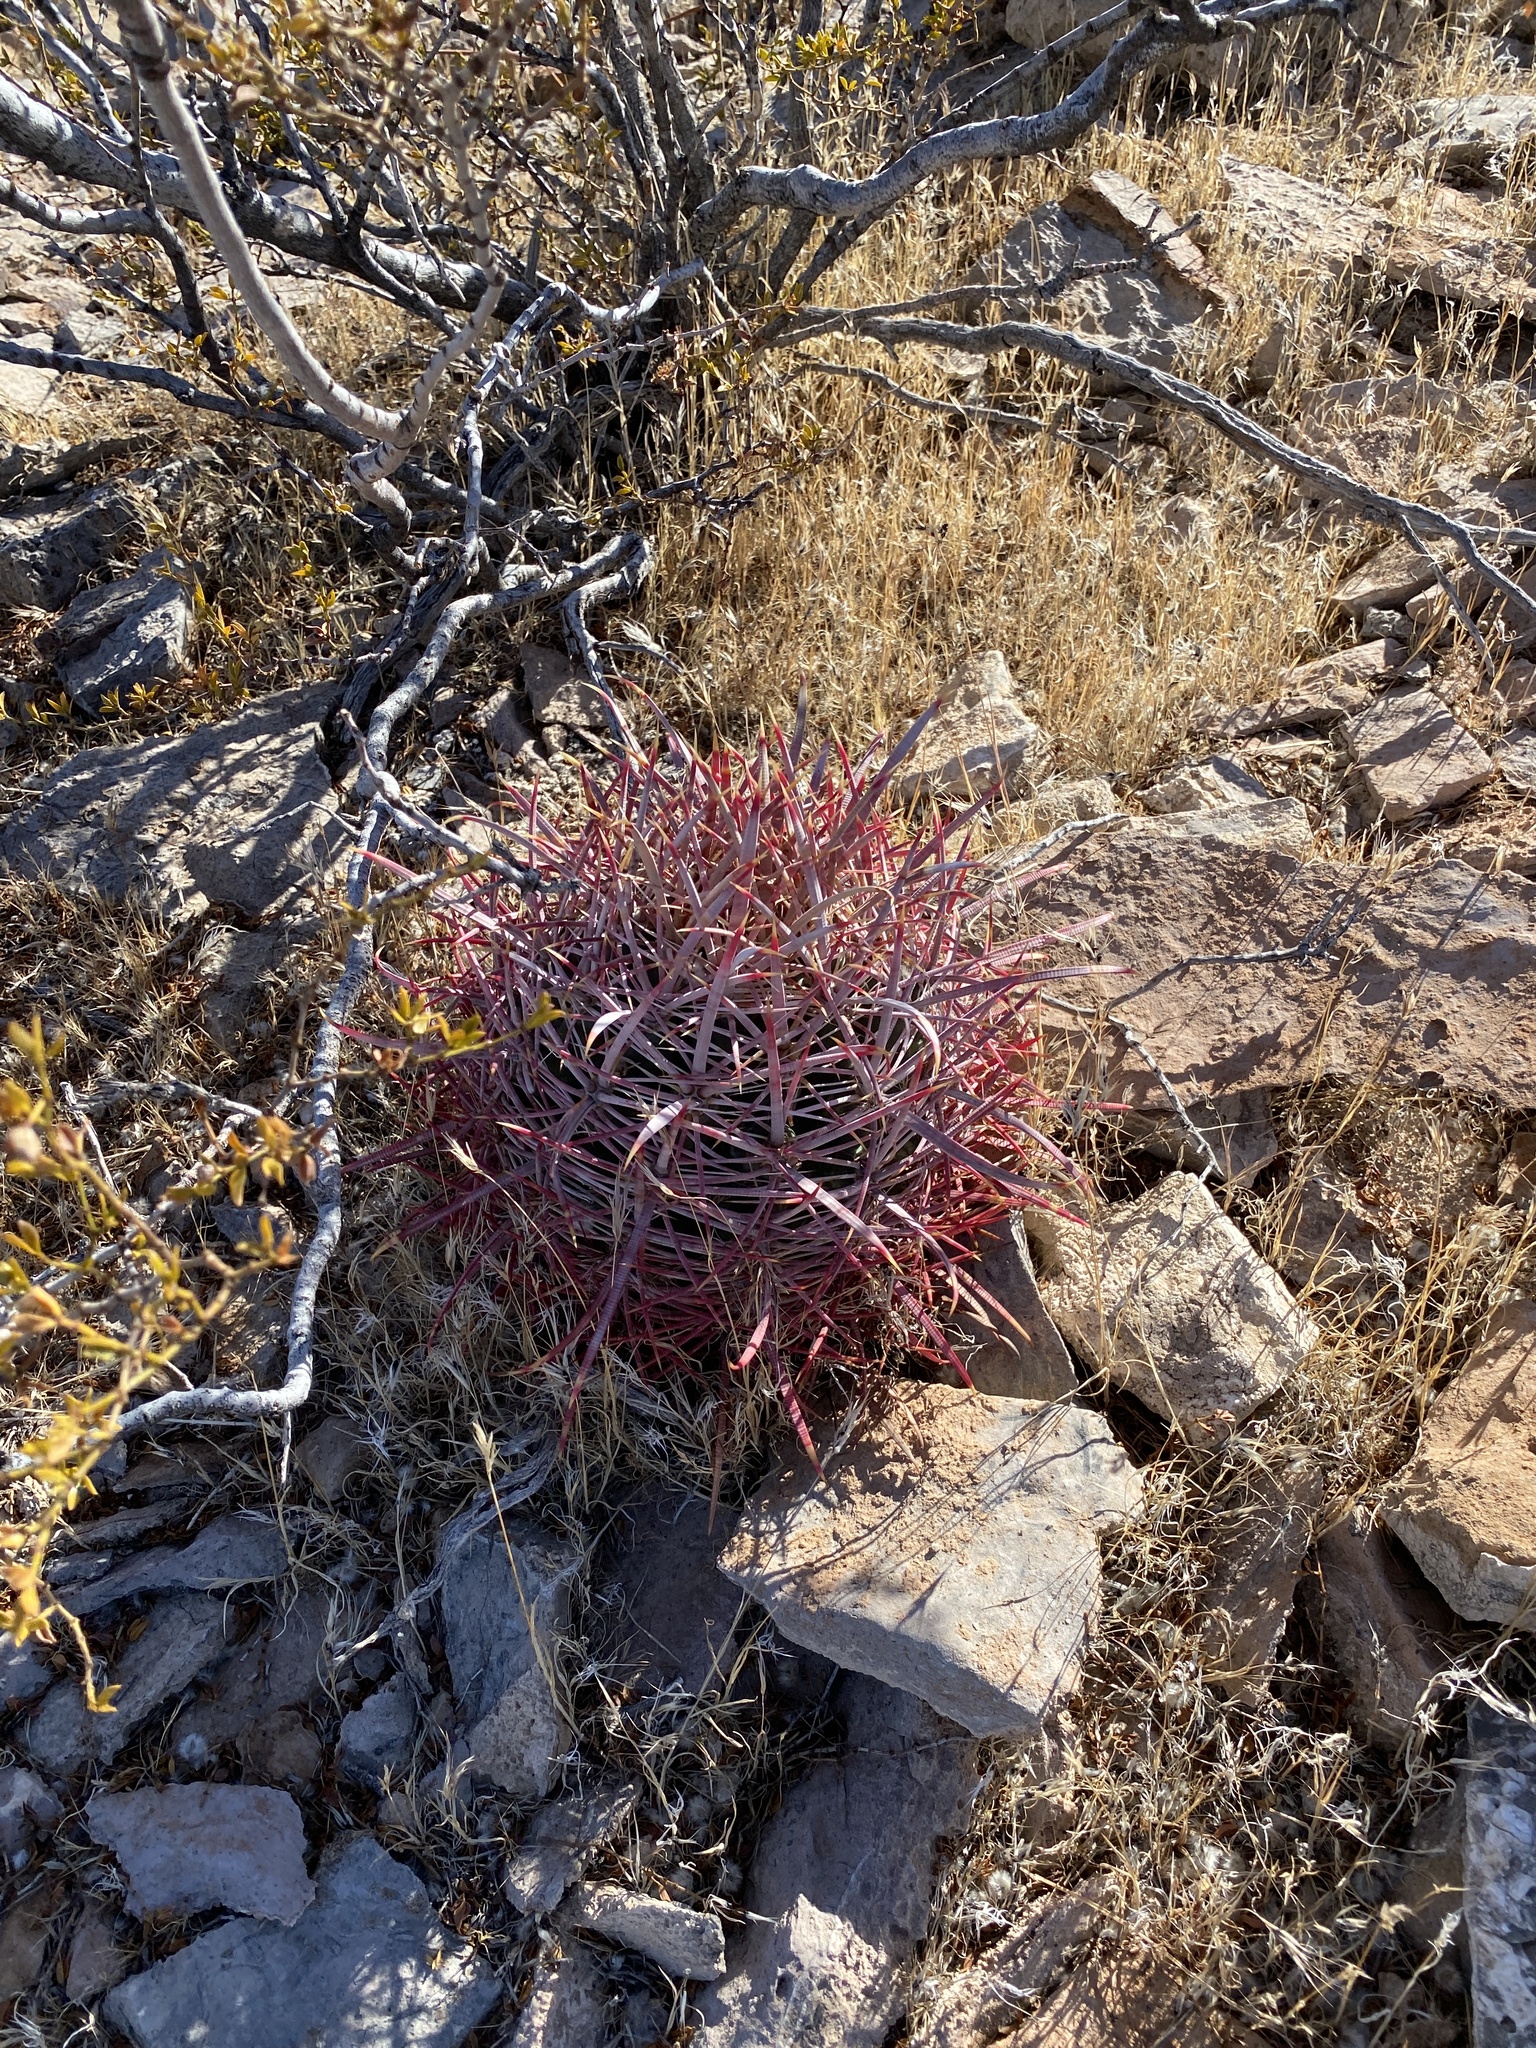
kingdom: Plantae
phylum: Tracheophyta
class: Magnoliopsida
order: Caryophyllales
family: Cactaceae
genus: Ferocactus
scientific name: Ferocactus cylindraceus
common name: California barrel cactus
